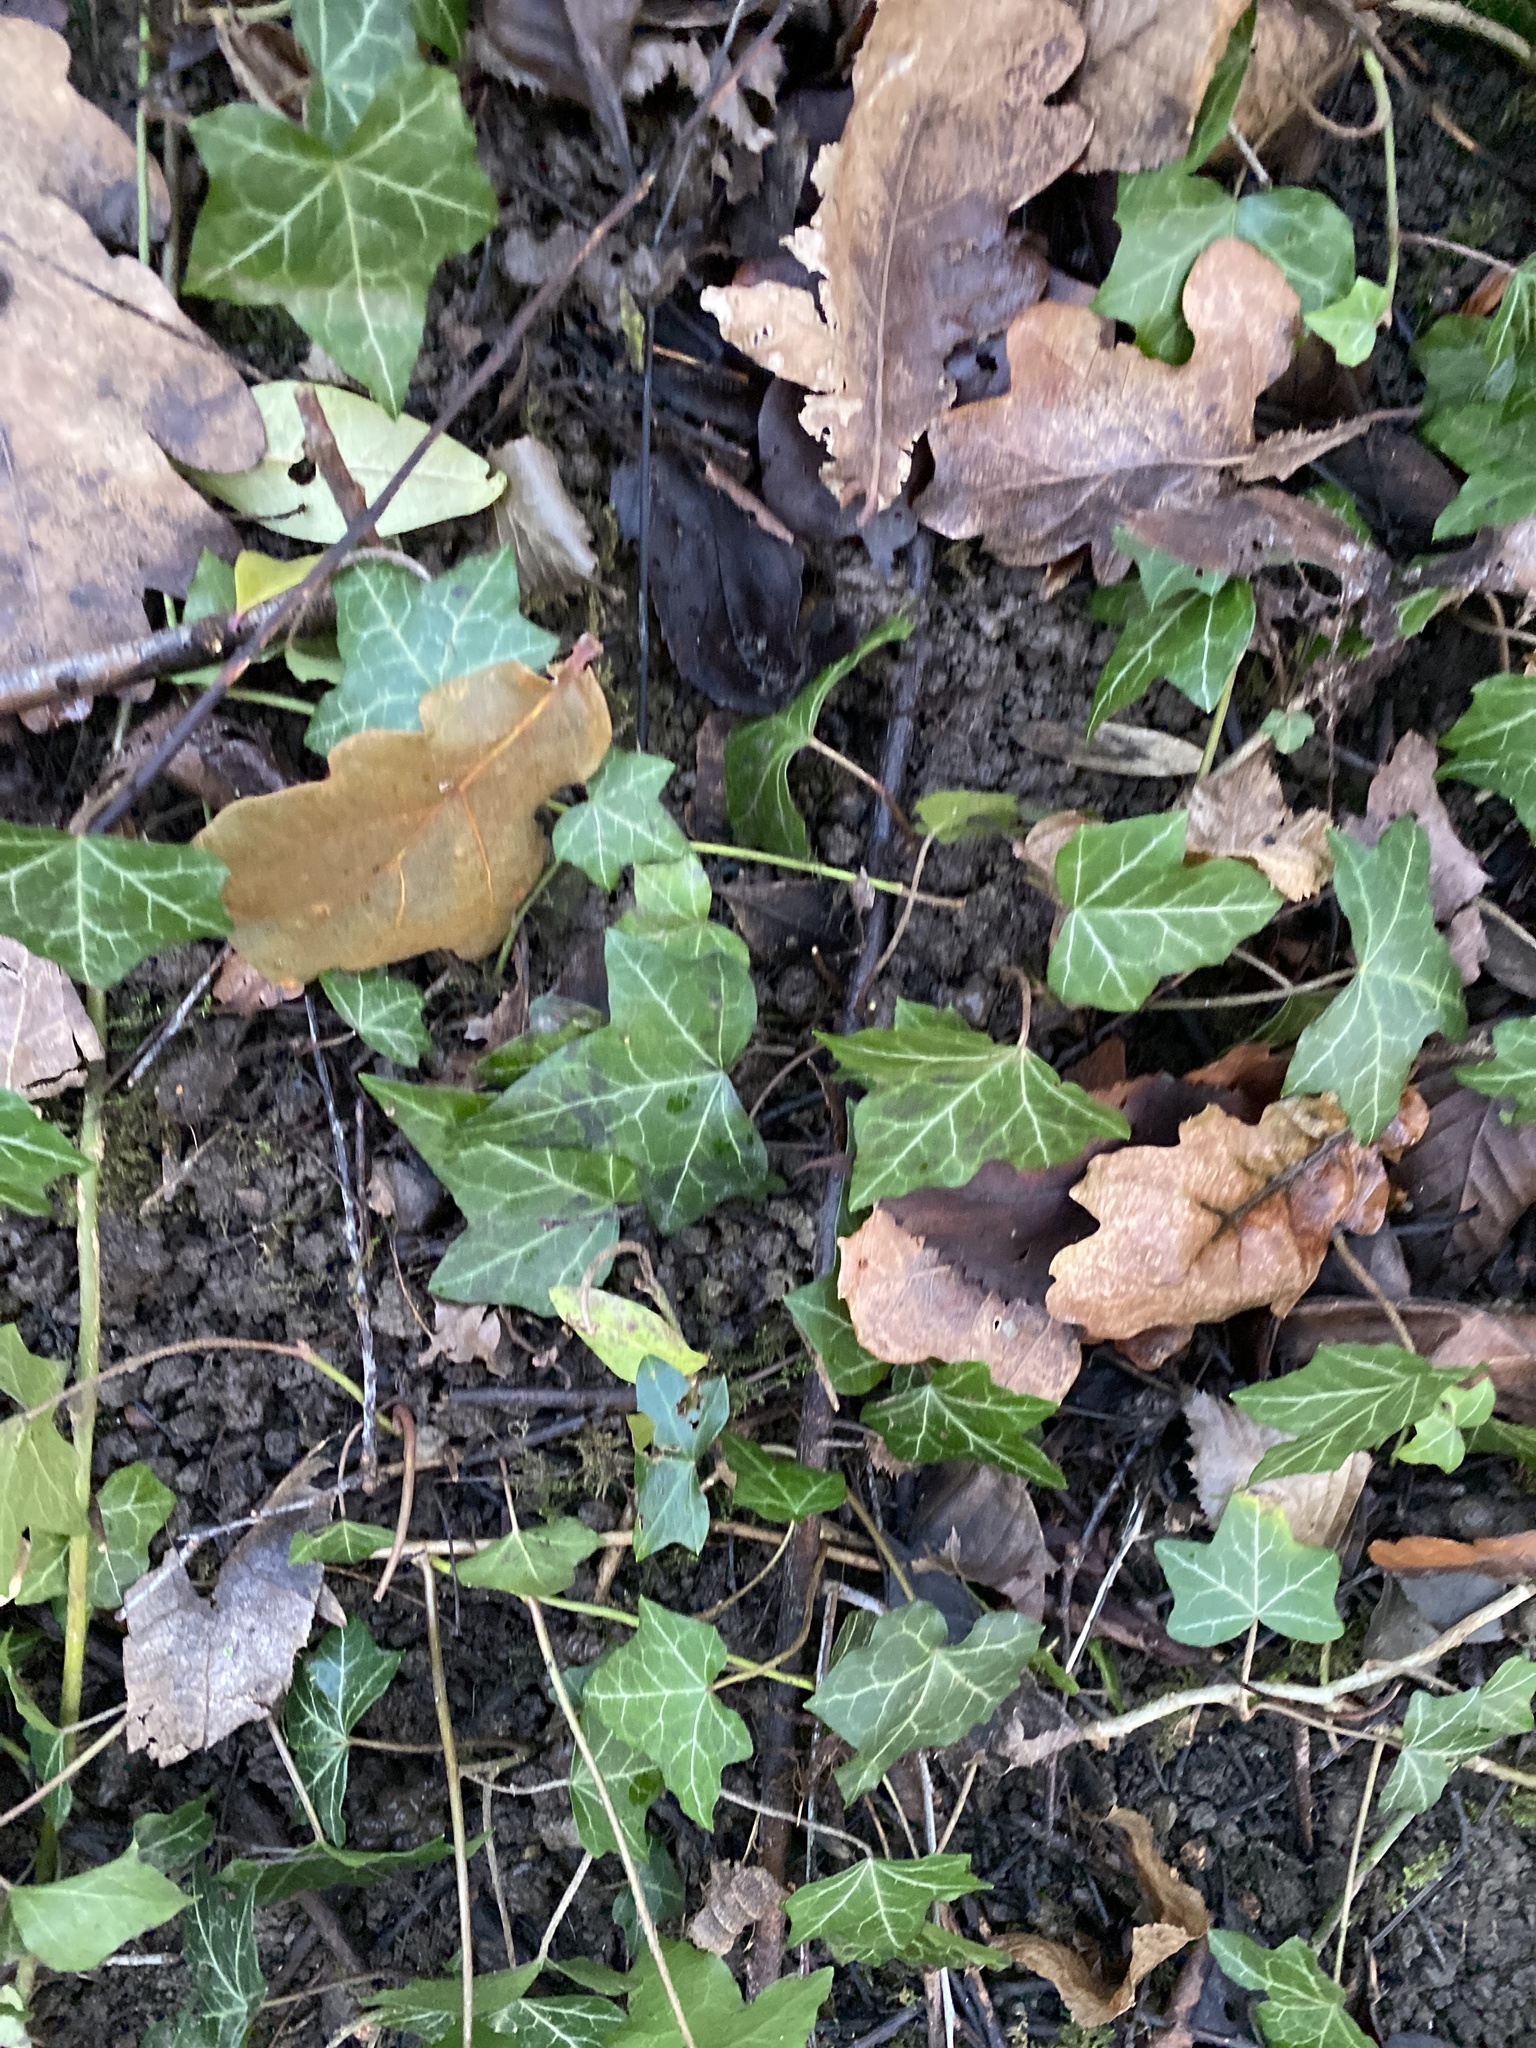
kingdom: Plantae
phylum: Tracheophyta
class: Magnoliopsida
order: Apiales
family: Araliaceae
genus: Hedera
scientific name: Hedera helix
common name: Ivy
